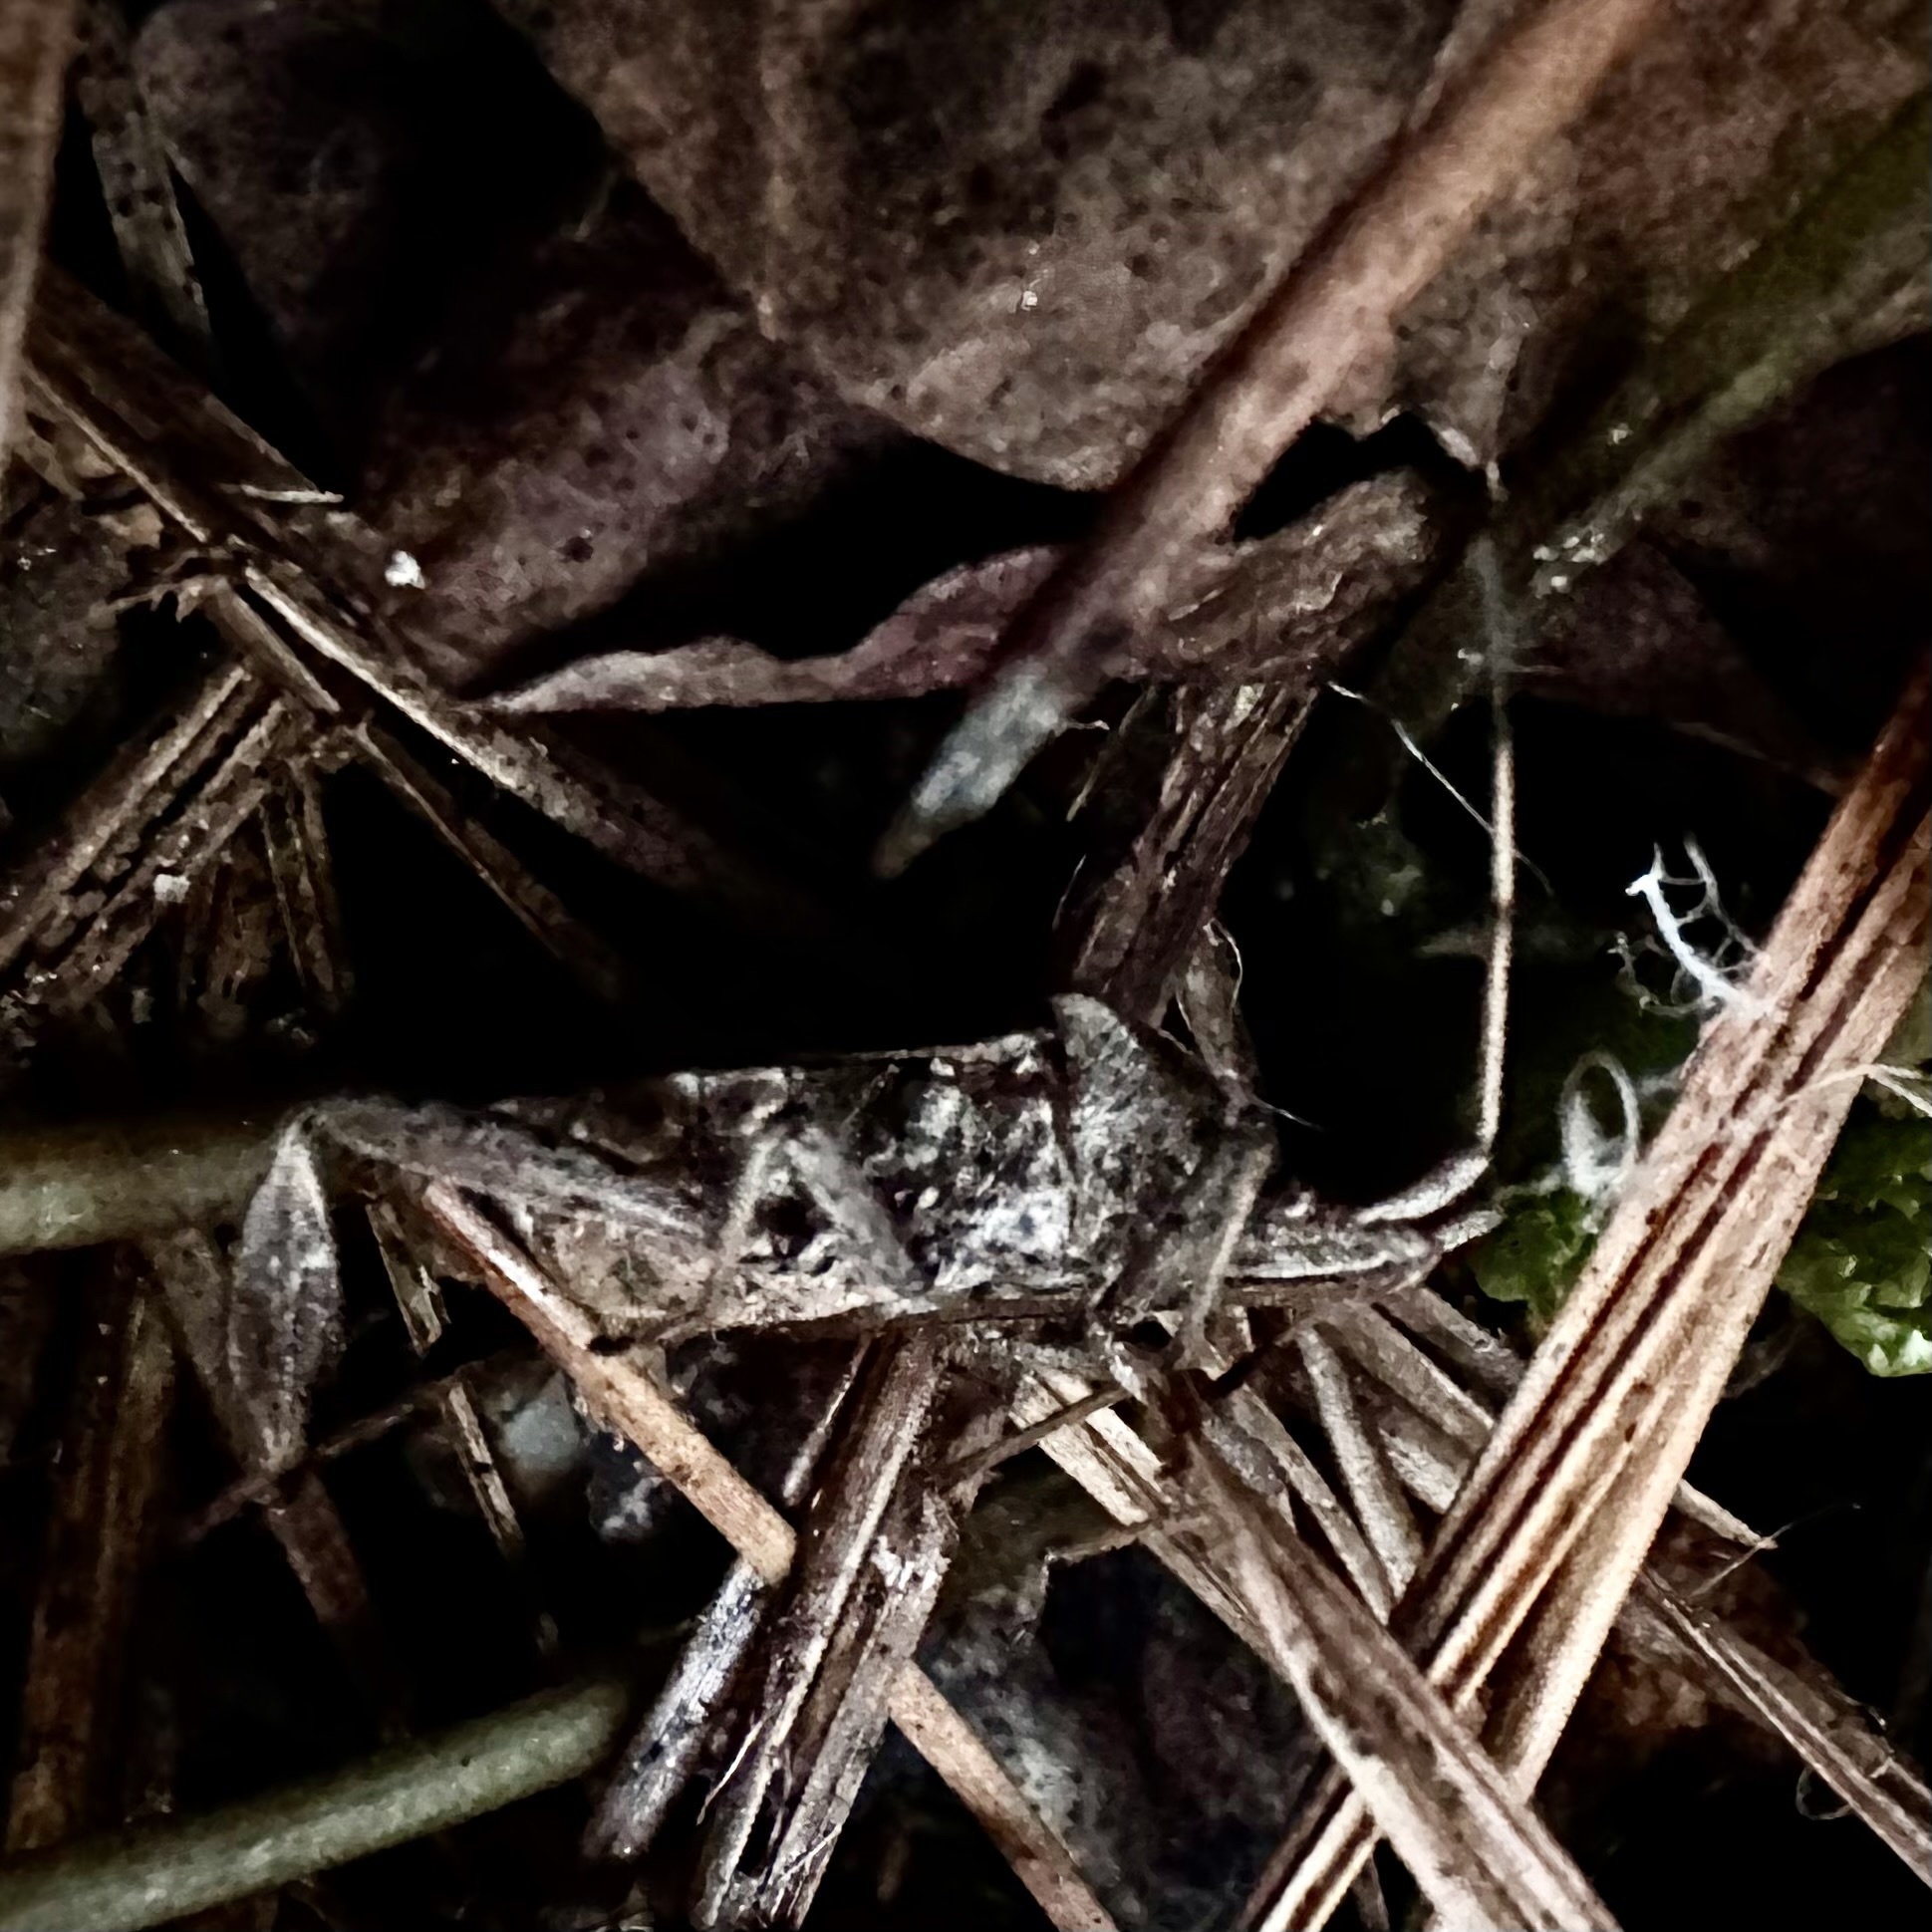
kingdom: Animalia
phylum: Arthropoda
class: Insecta
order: Hemiptera
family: Coreidae
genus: Leptoglossus
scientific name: Leptoglossus corculus
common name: Southern pine seed bug
